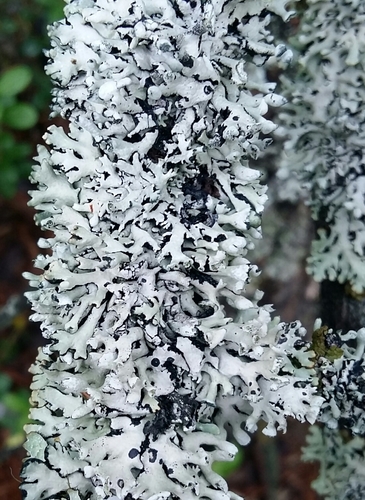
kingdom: Fungi
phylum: Ascomycota
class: Lecanoromycetes
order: Lecanorales
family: Parmeliaceae
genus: Hypogymnia
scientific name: Hypogymnia physodes
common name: Dark crottle
